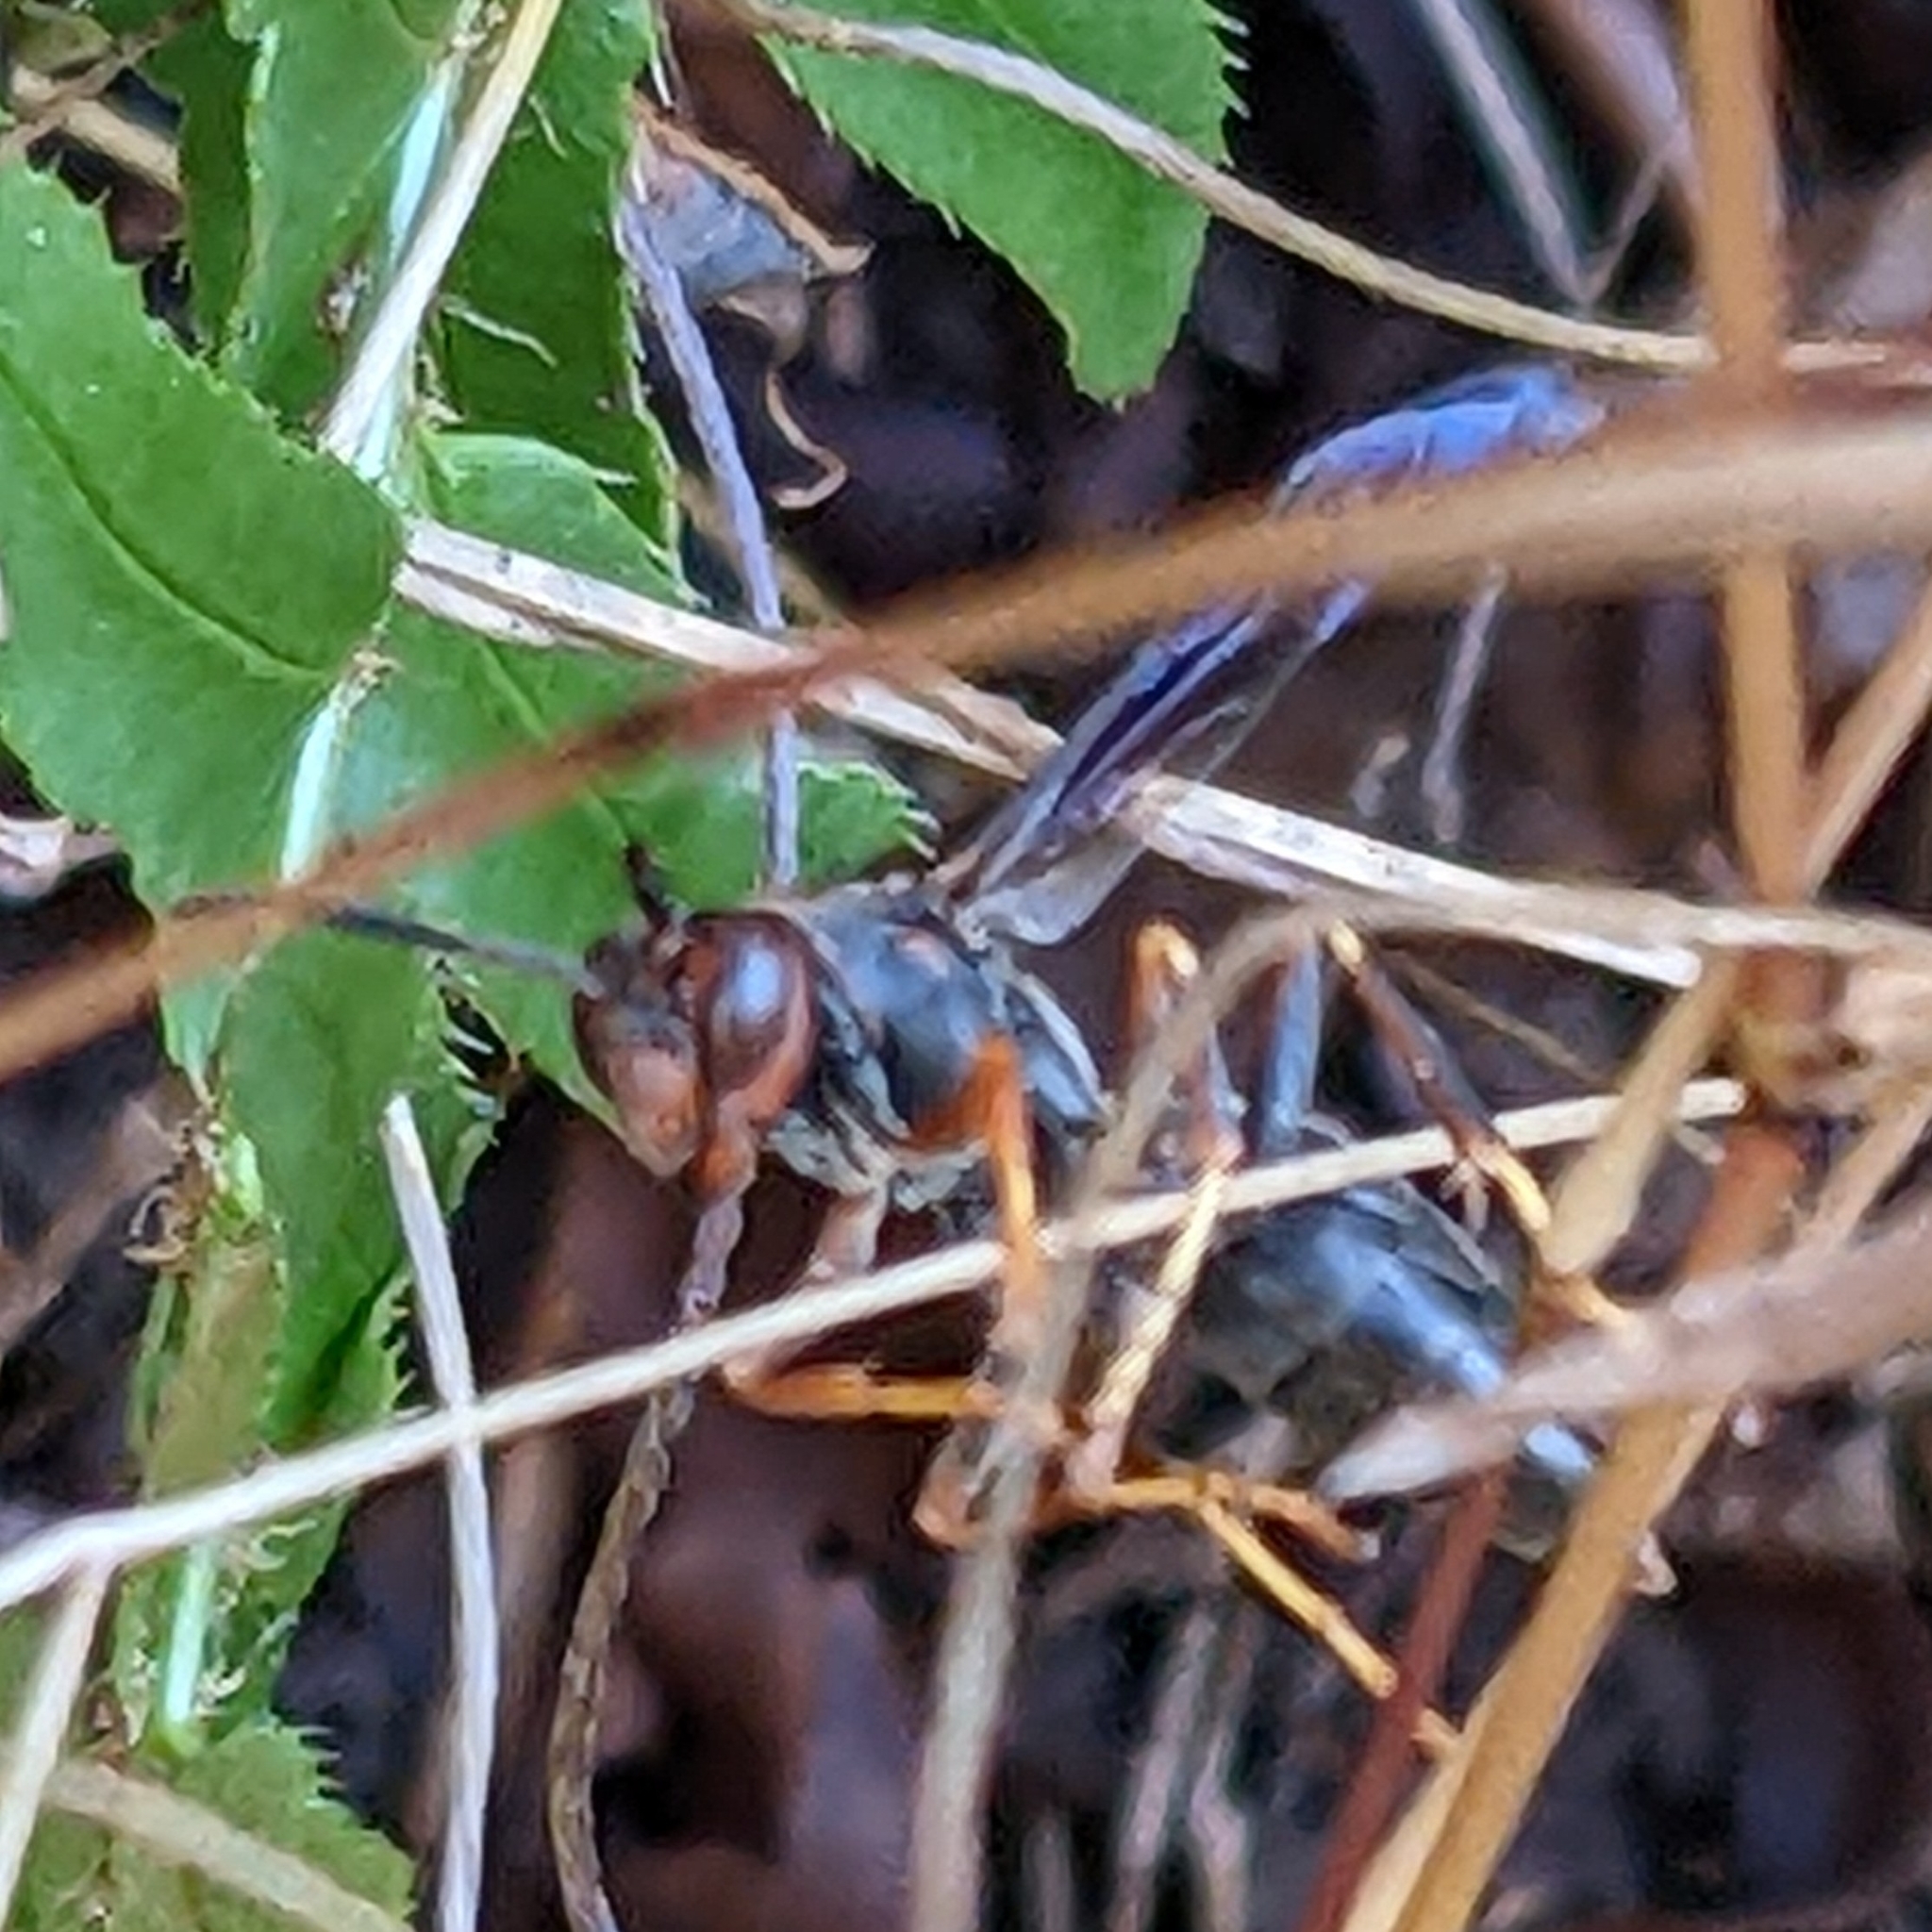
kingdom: Animalia
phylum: Arthropoda
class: Insecta
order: Hymenoptera
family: Eumenidae
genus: Polistes
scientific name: Polistes parametricus
